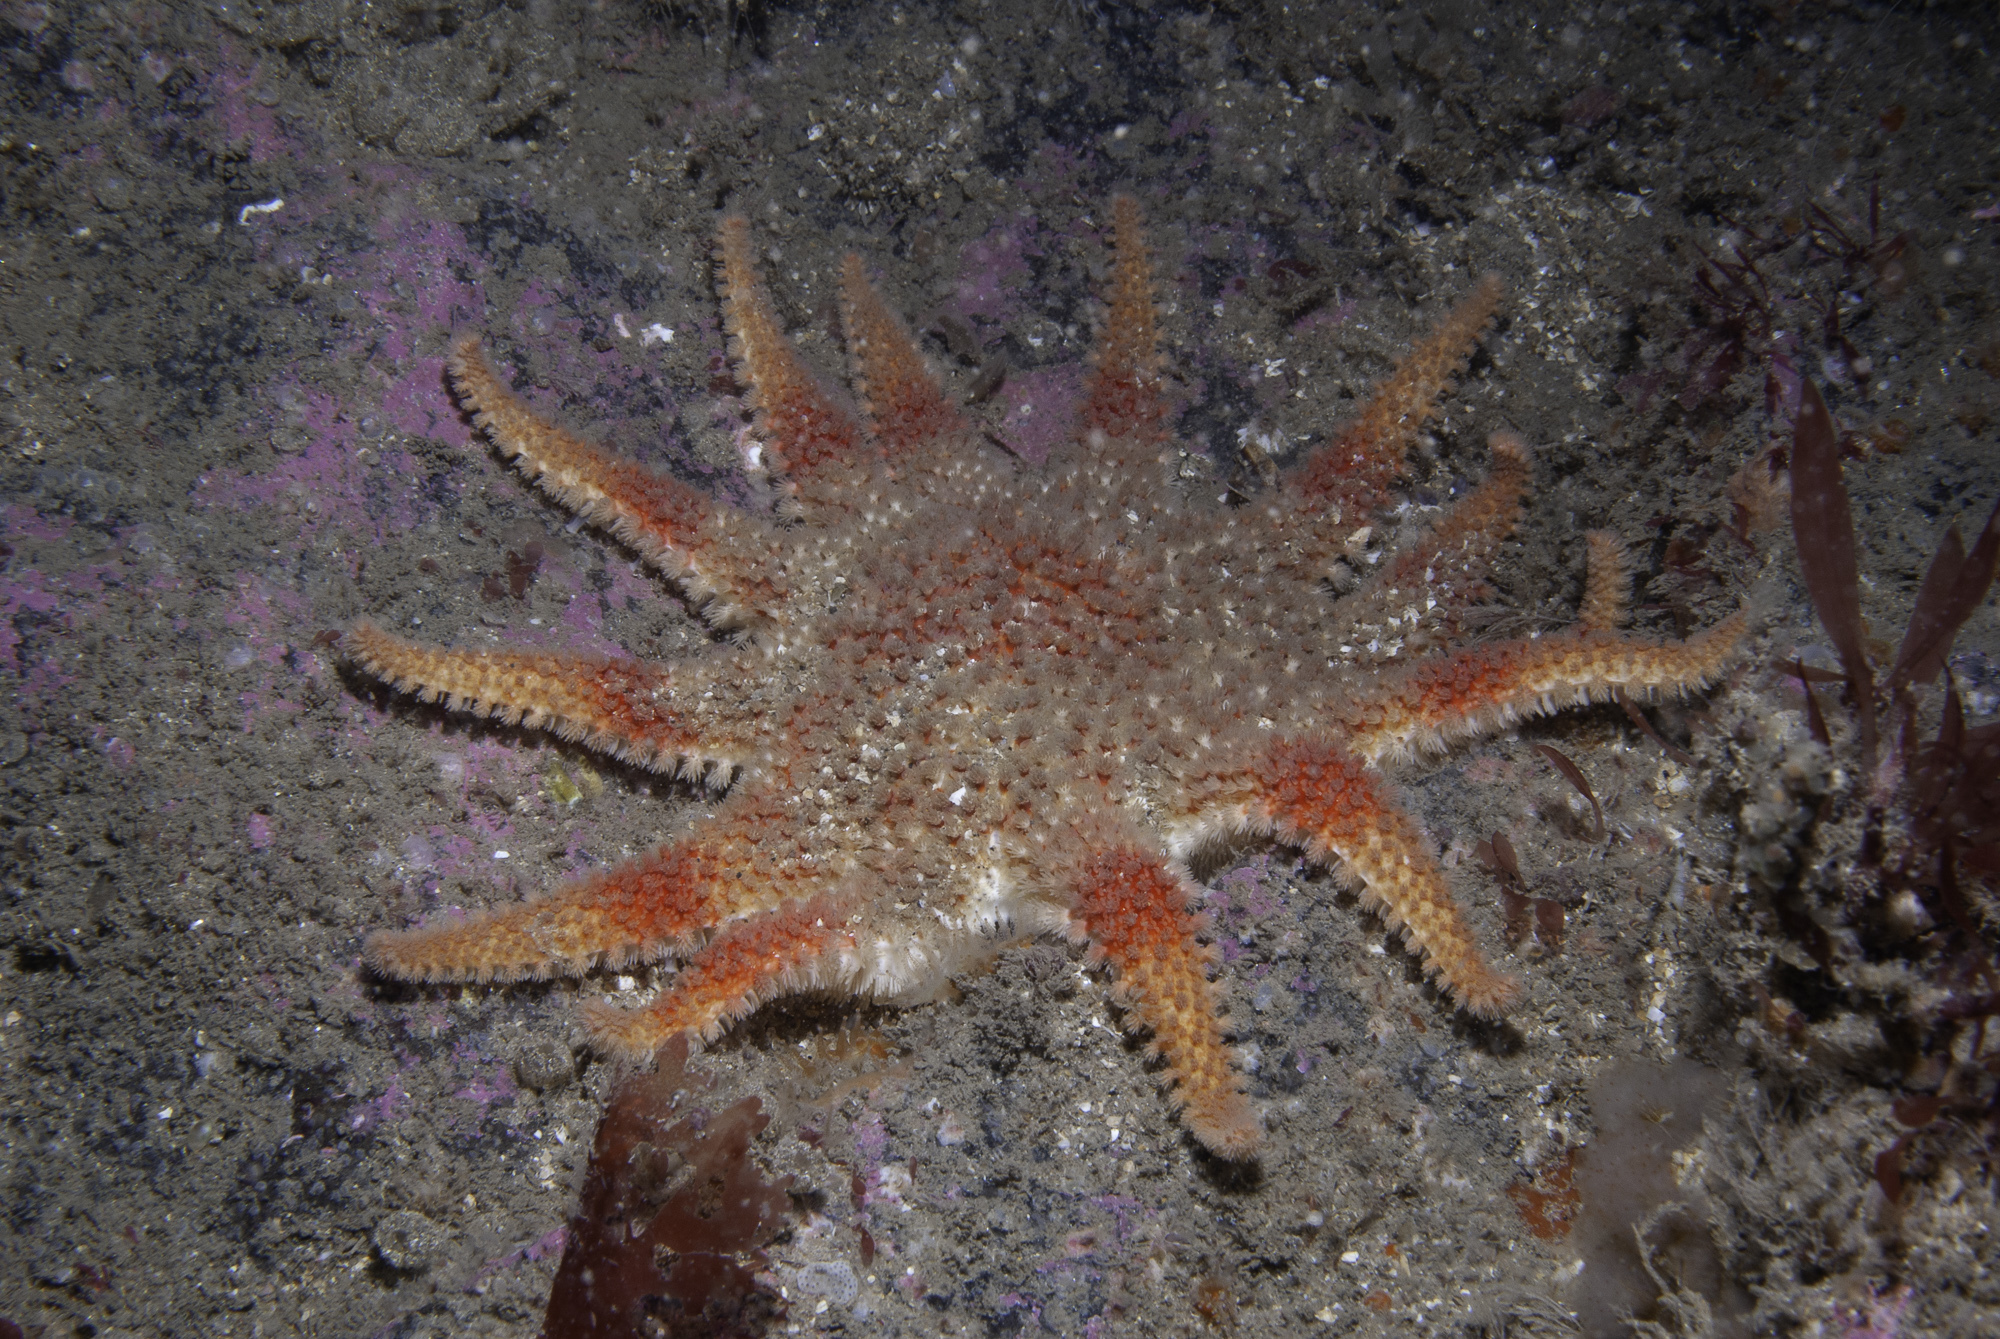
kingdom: Animalia
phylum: Echinodermata
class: Asteroidea
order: Valvatida
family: Solasteridae
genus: Crossaster
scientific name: Crossaster papposus
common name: Common sun star
